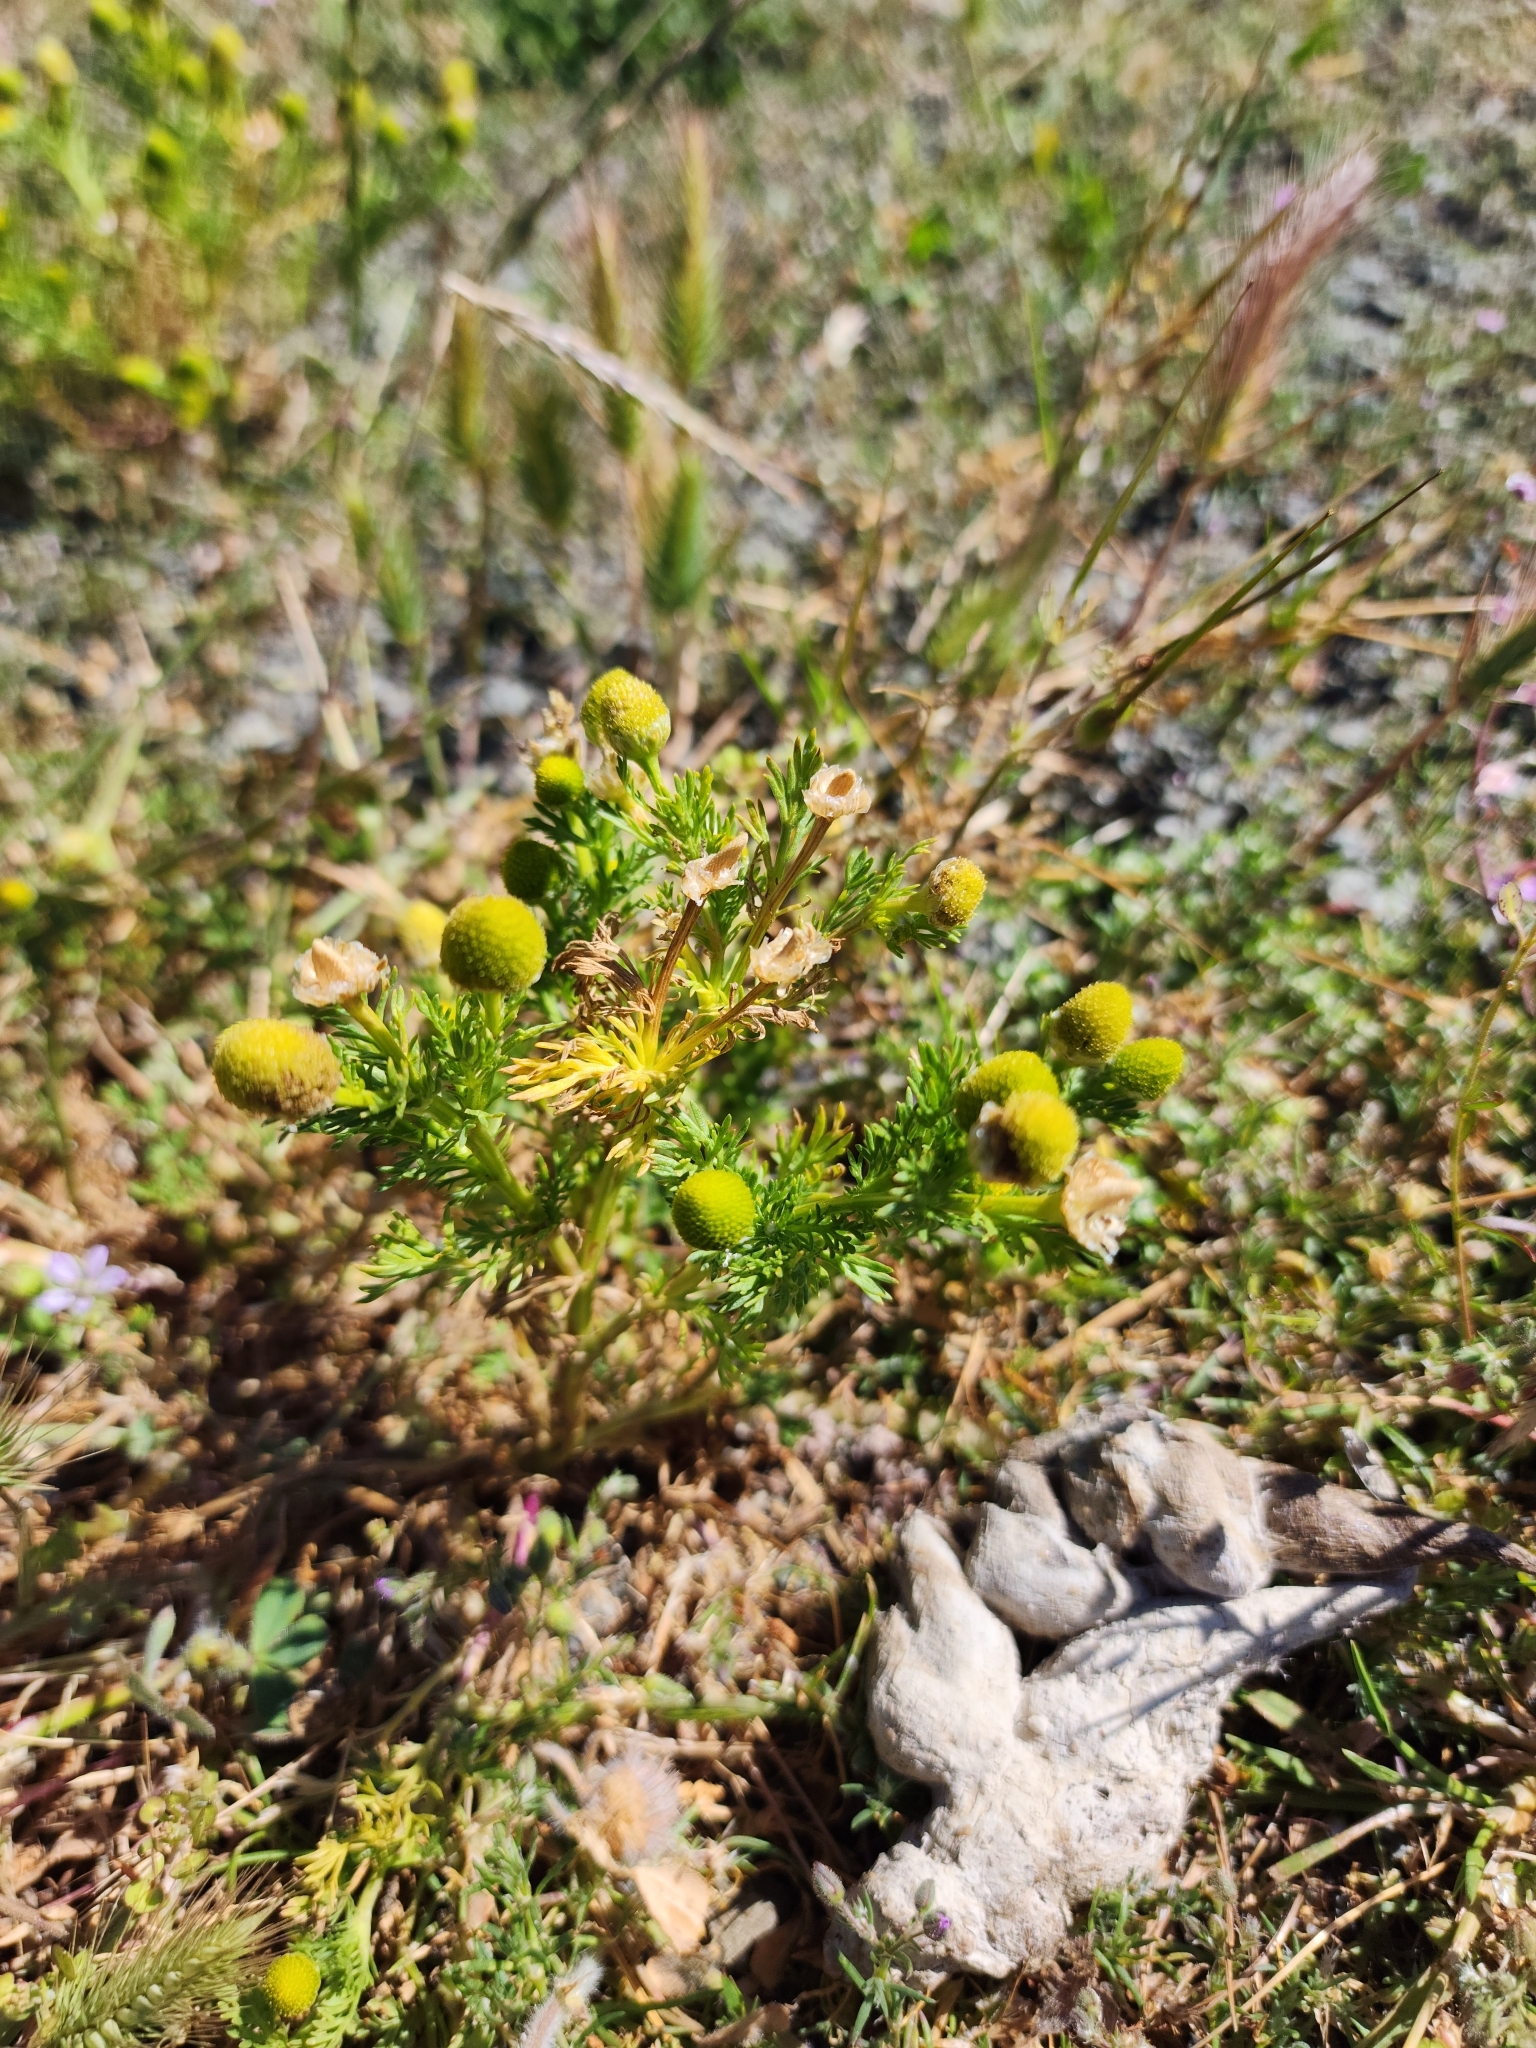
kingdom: Plantae
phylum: Tracheophyta
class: Magnoliopsida
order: Asterales
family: Asteraceae
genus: Matricaria
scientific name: Matricaria discoidea
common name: Disc mayweed
